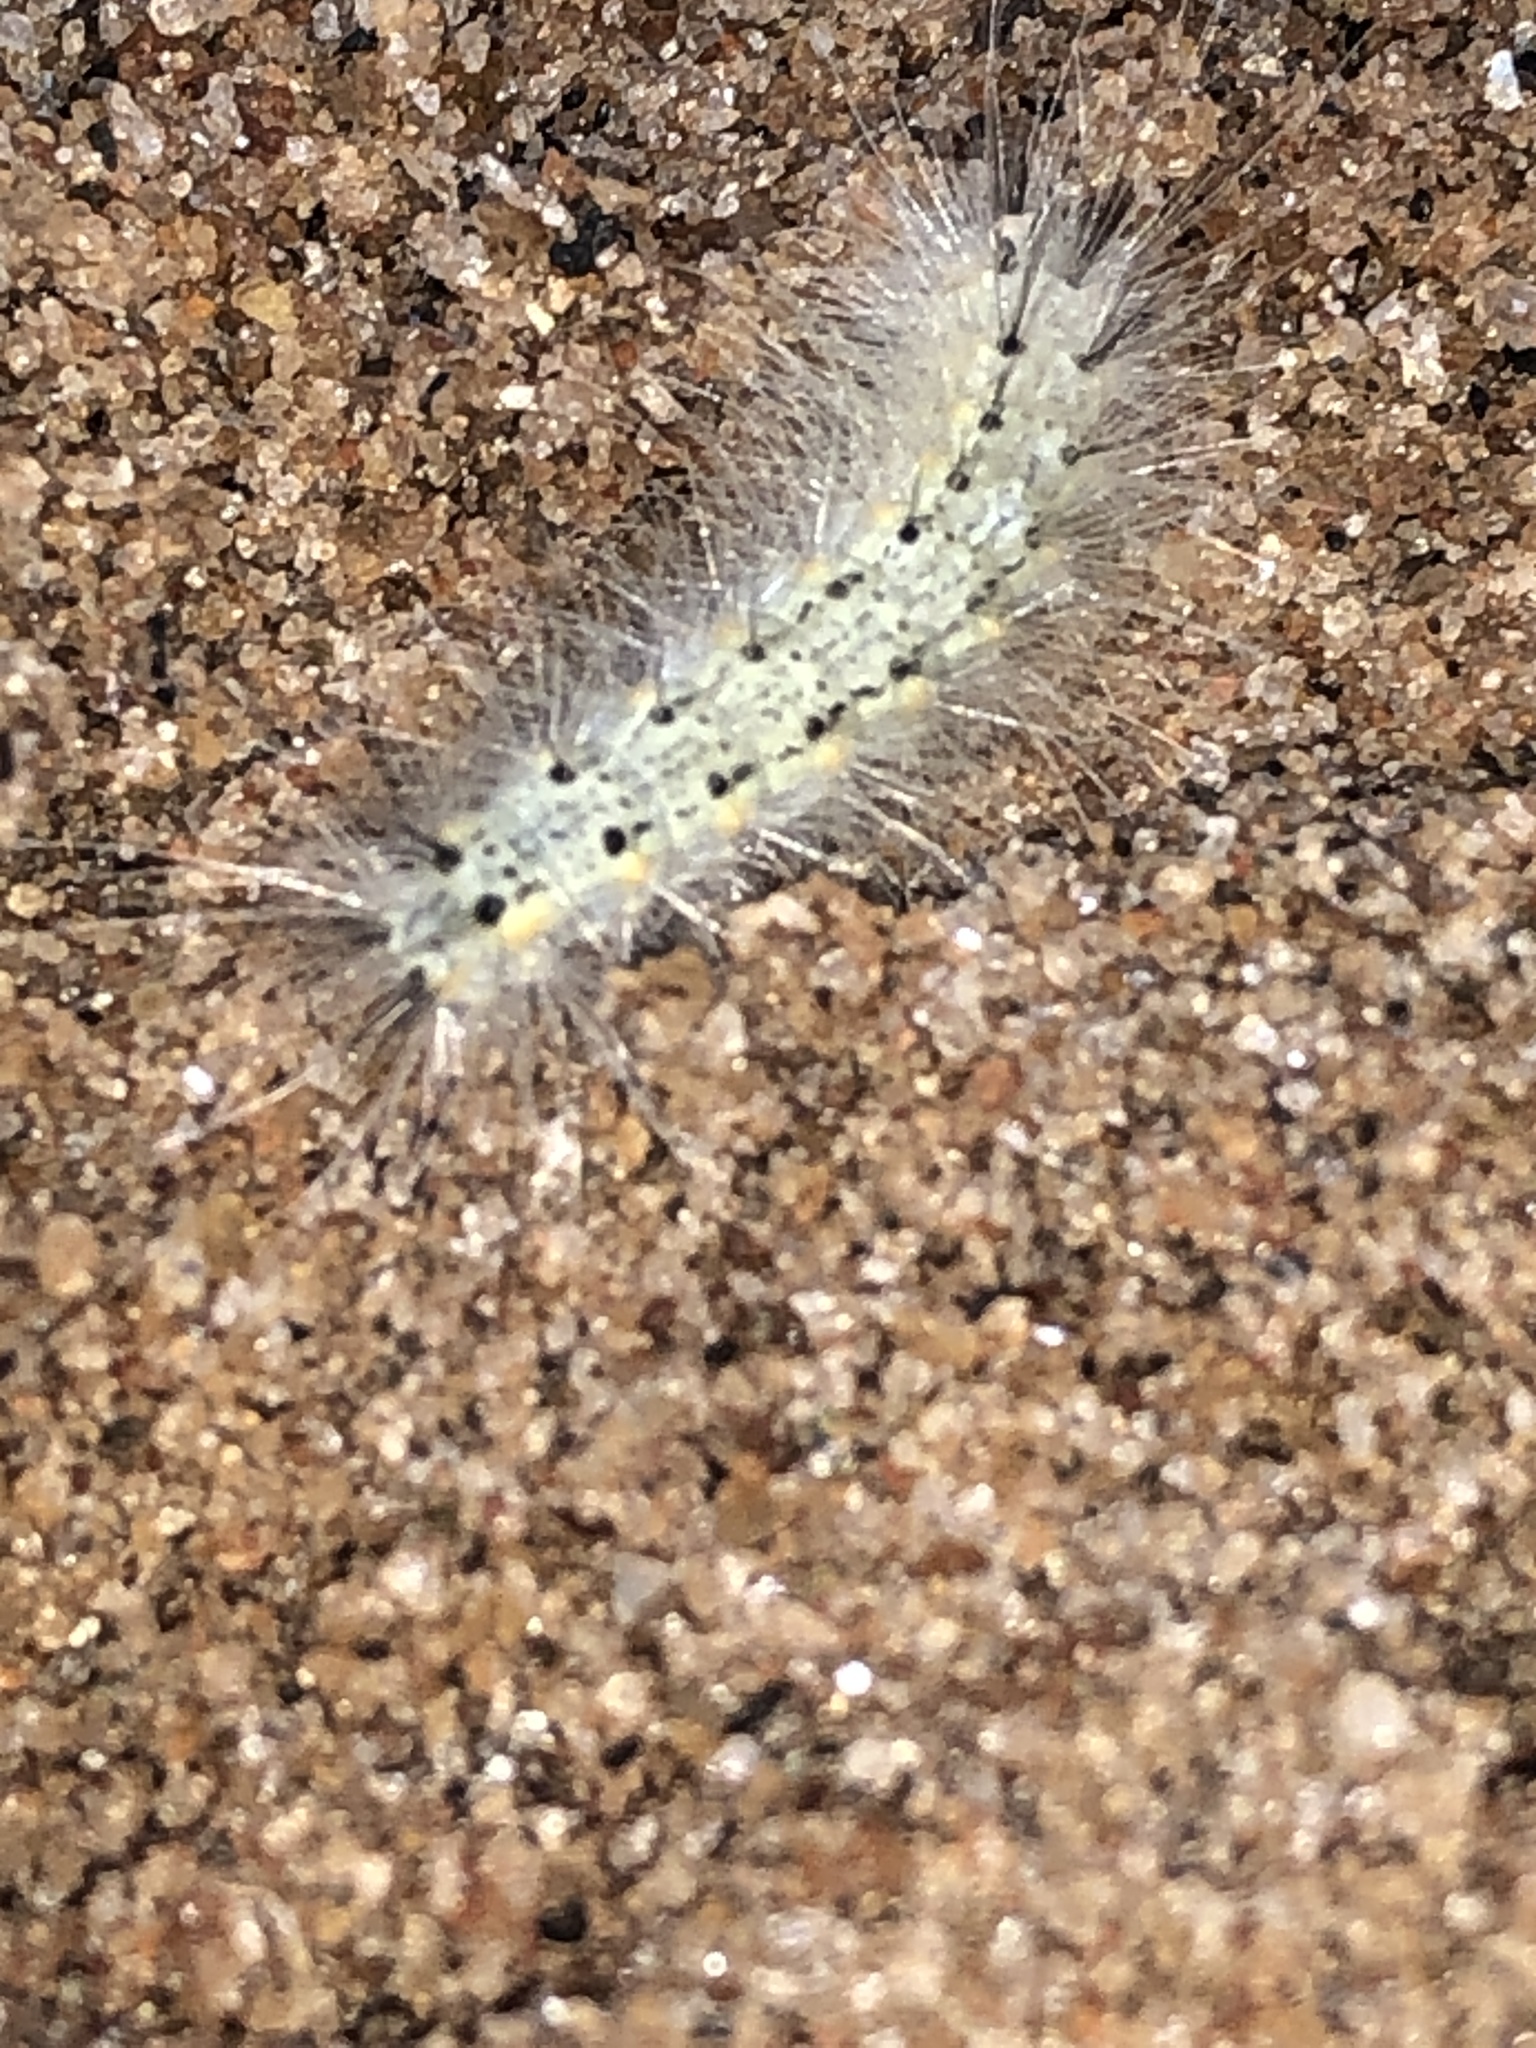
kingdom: Animalia
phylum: Arthropoda
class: Insecta
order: Lepidoptera
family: Erebidae
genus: Hyphantria
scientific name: Hyphantria cunea
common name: American white moth
